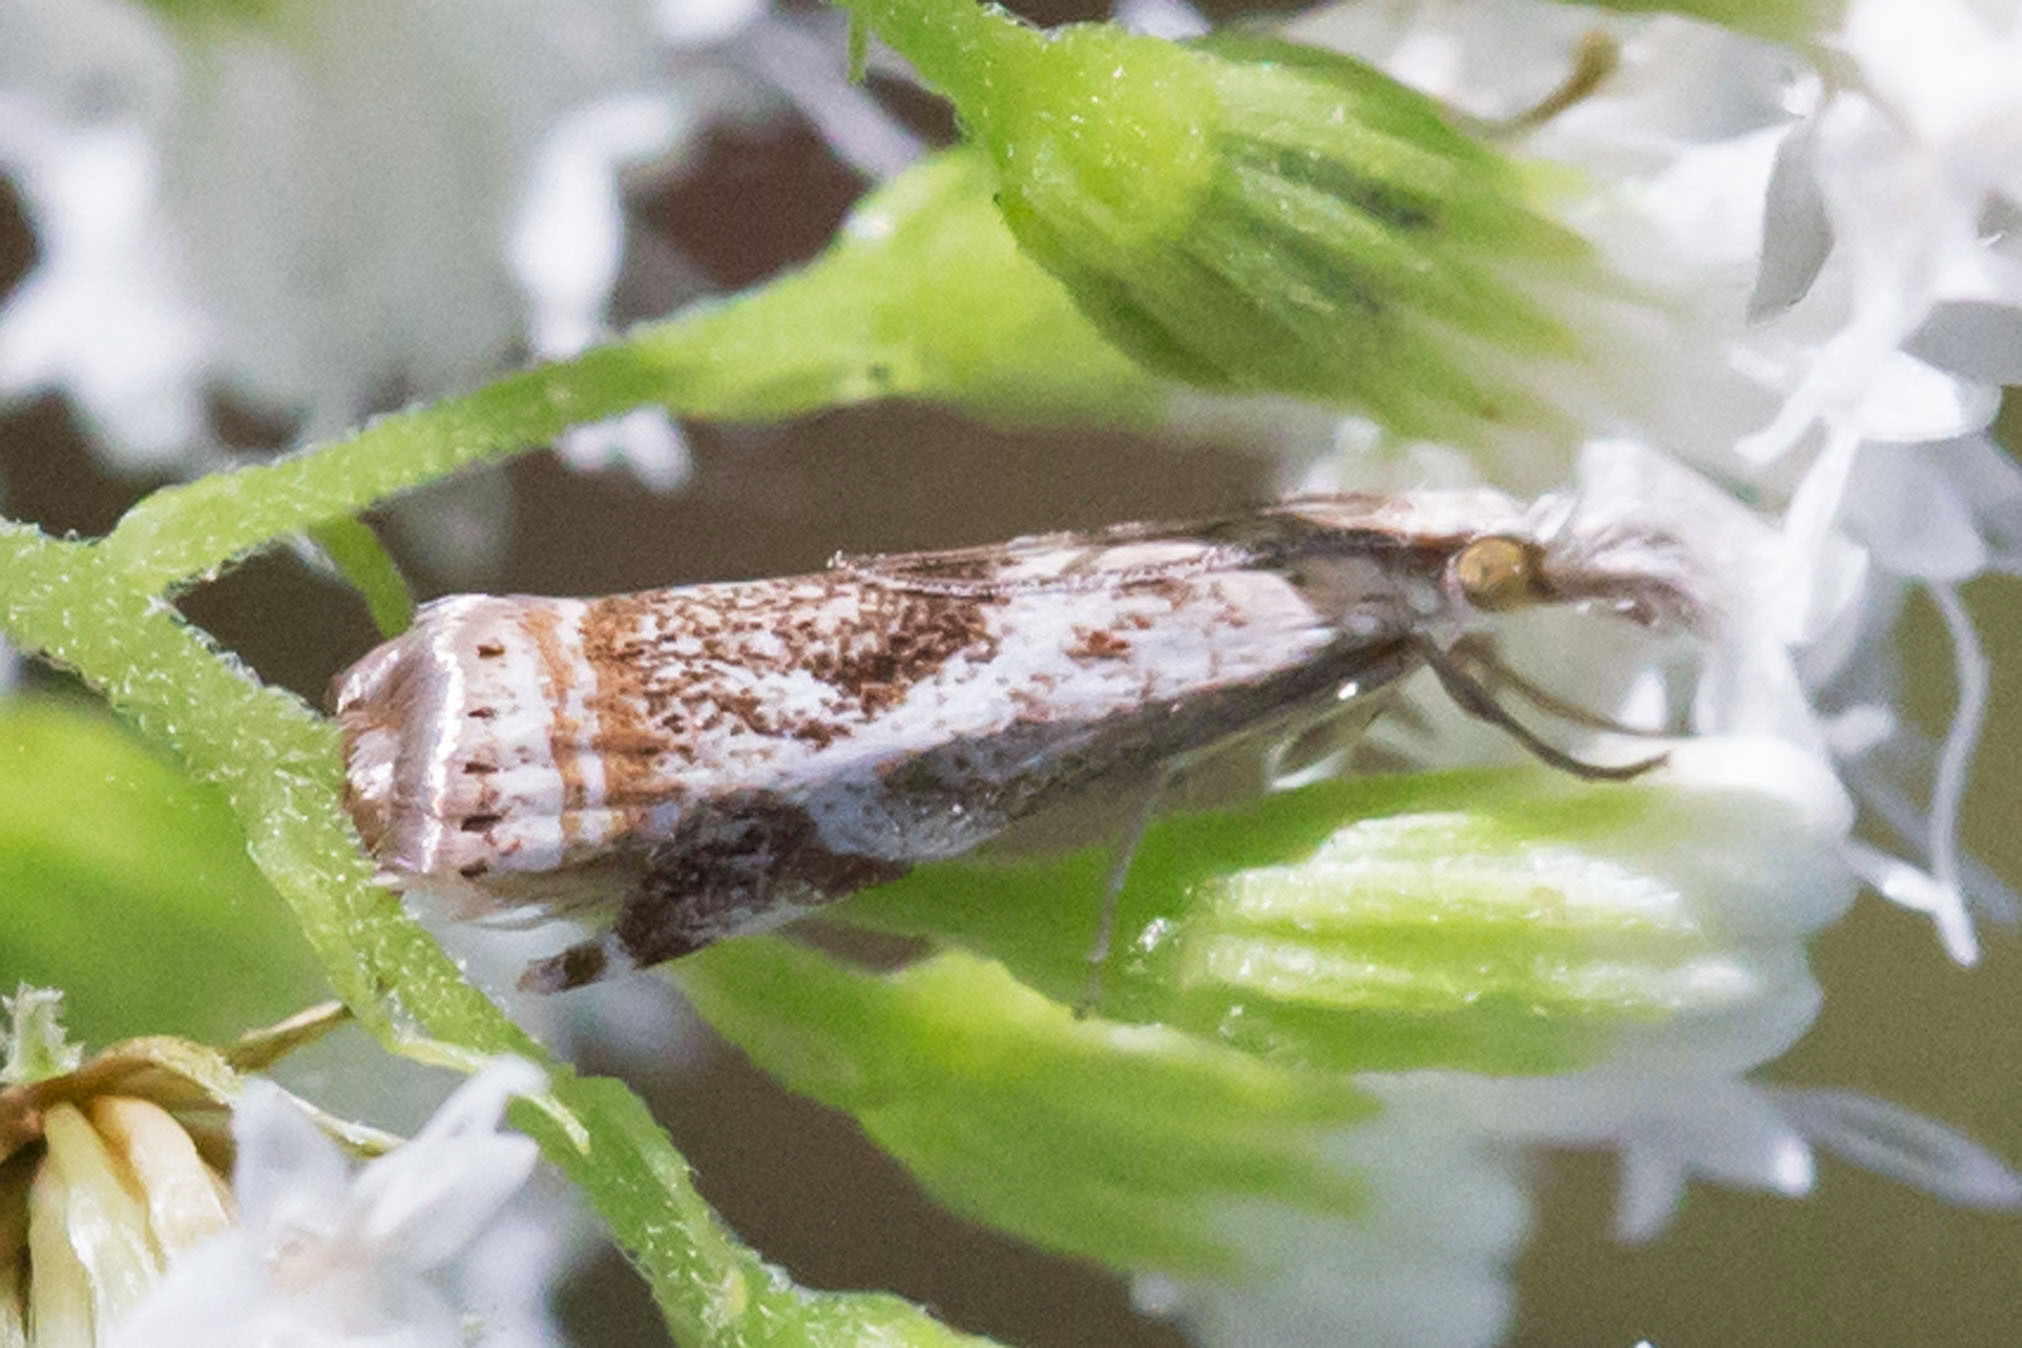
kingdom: Animalia
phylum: Arthropoda
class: Insecta
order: Lepidoptera
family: Crambidae
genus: Microcrambus
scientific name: Microcrambus elegans
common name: Elegant grass-veneer
